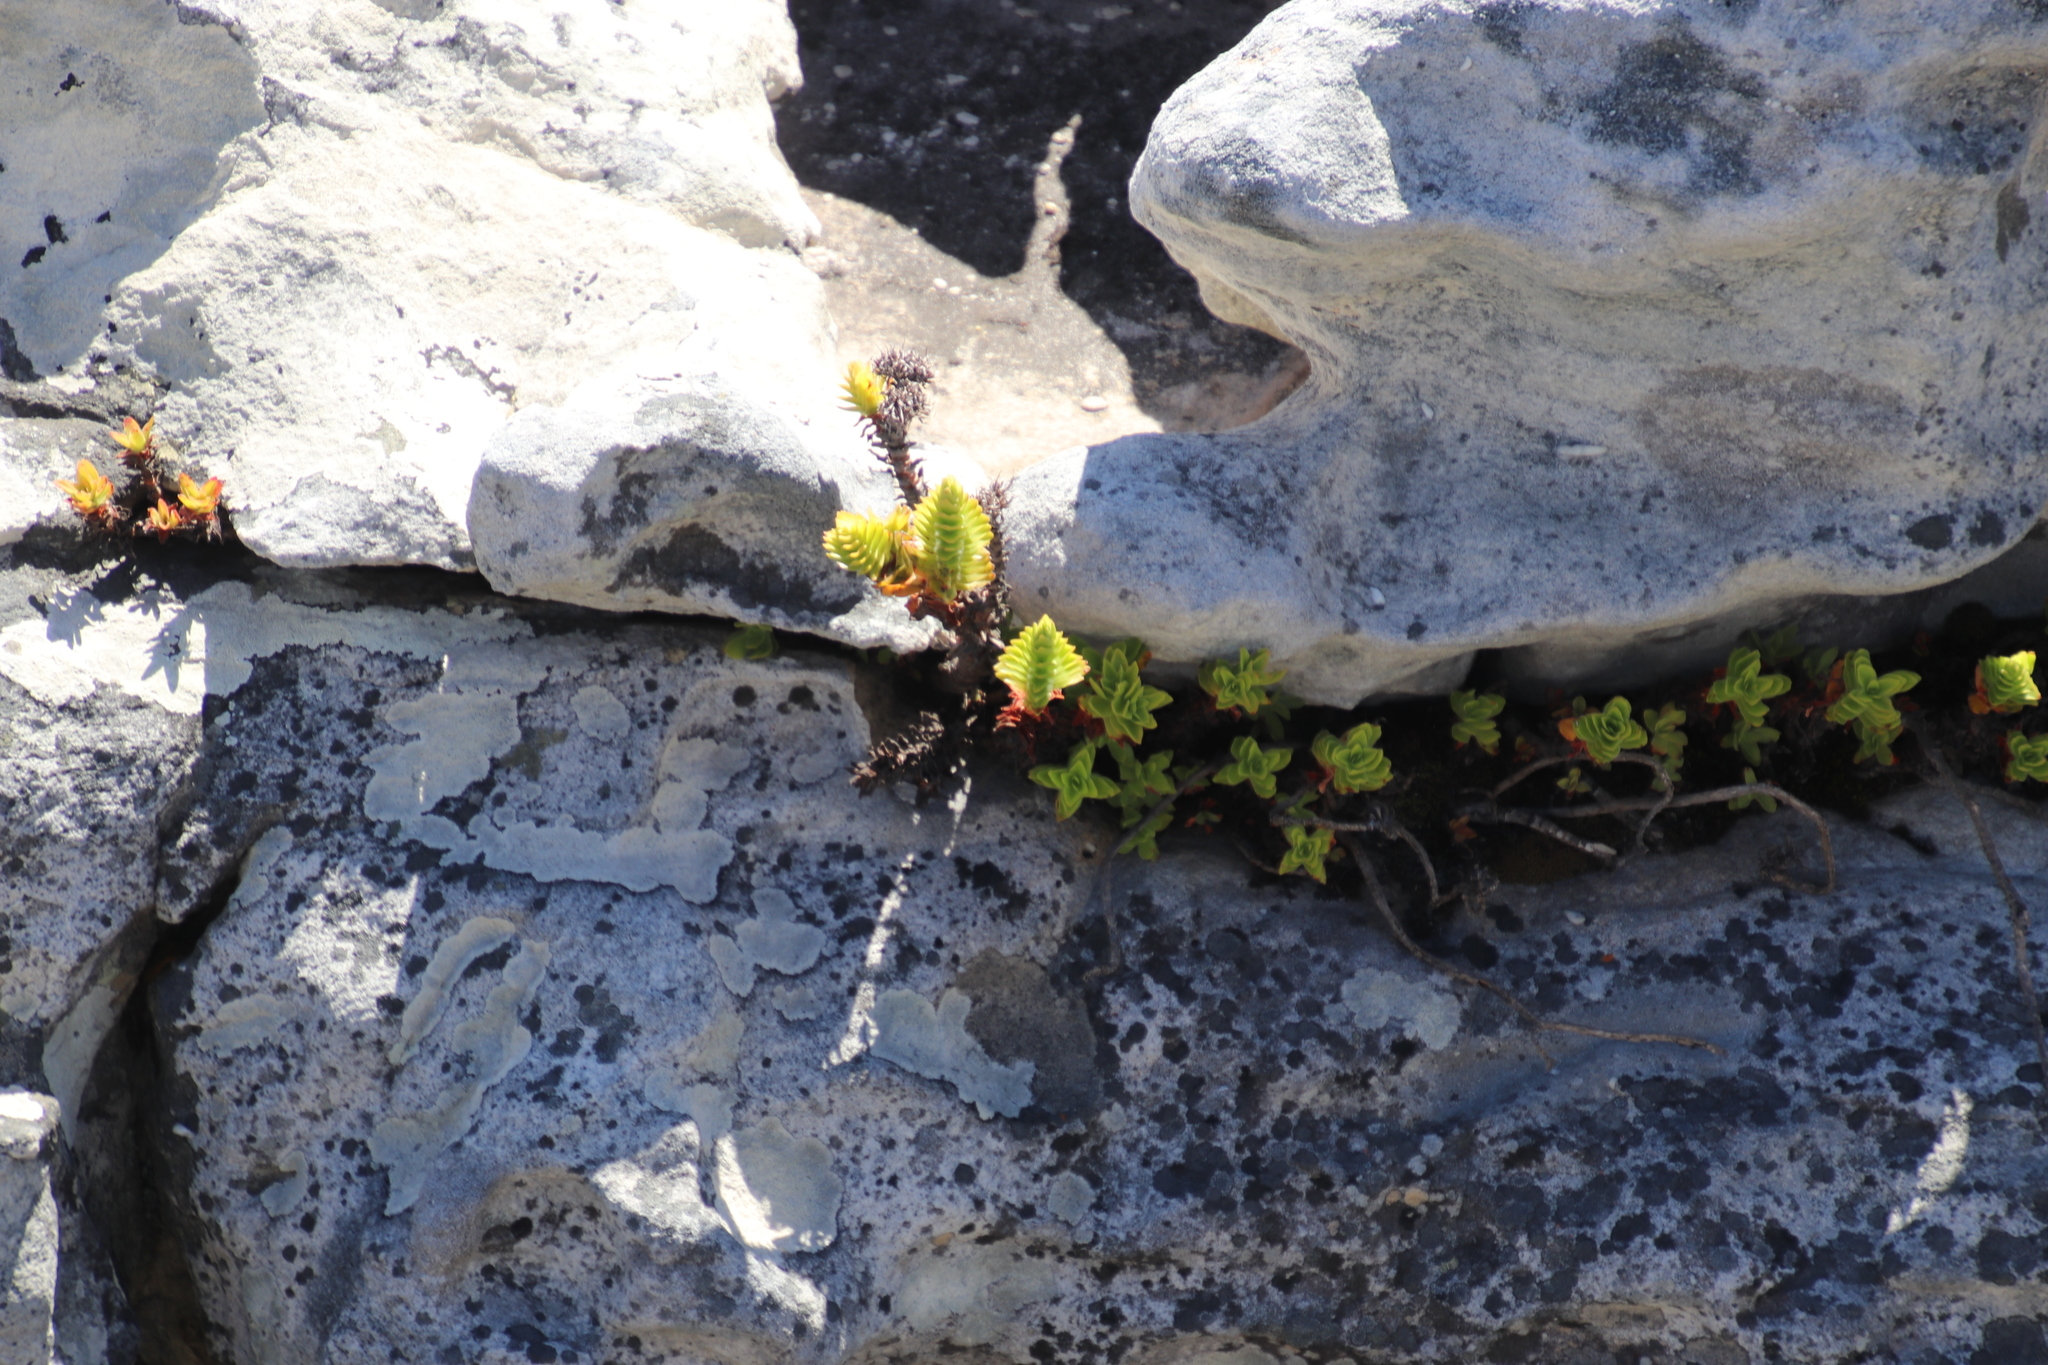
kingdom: Plantae
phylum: Tracheophyta
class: Magnoliopsida
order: Saxifragales
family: Crassulaceae
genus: Crassula
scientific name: Crassula coccinea
